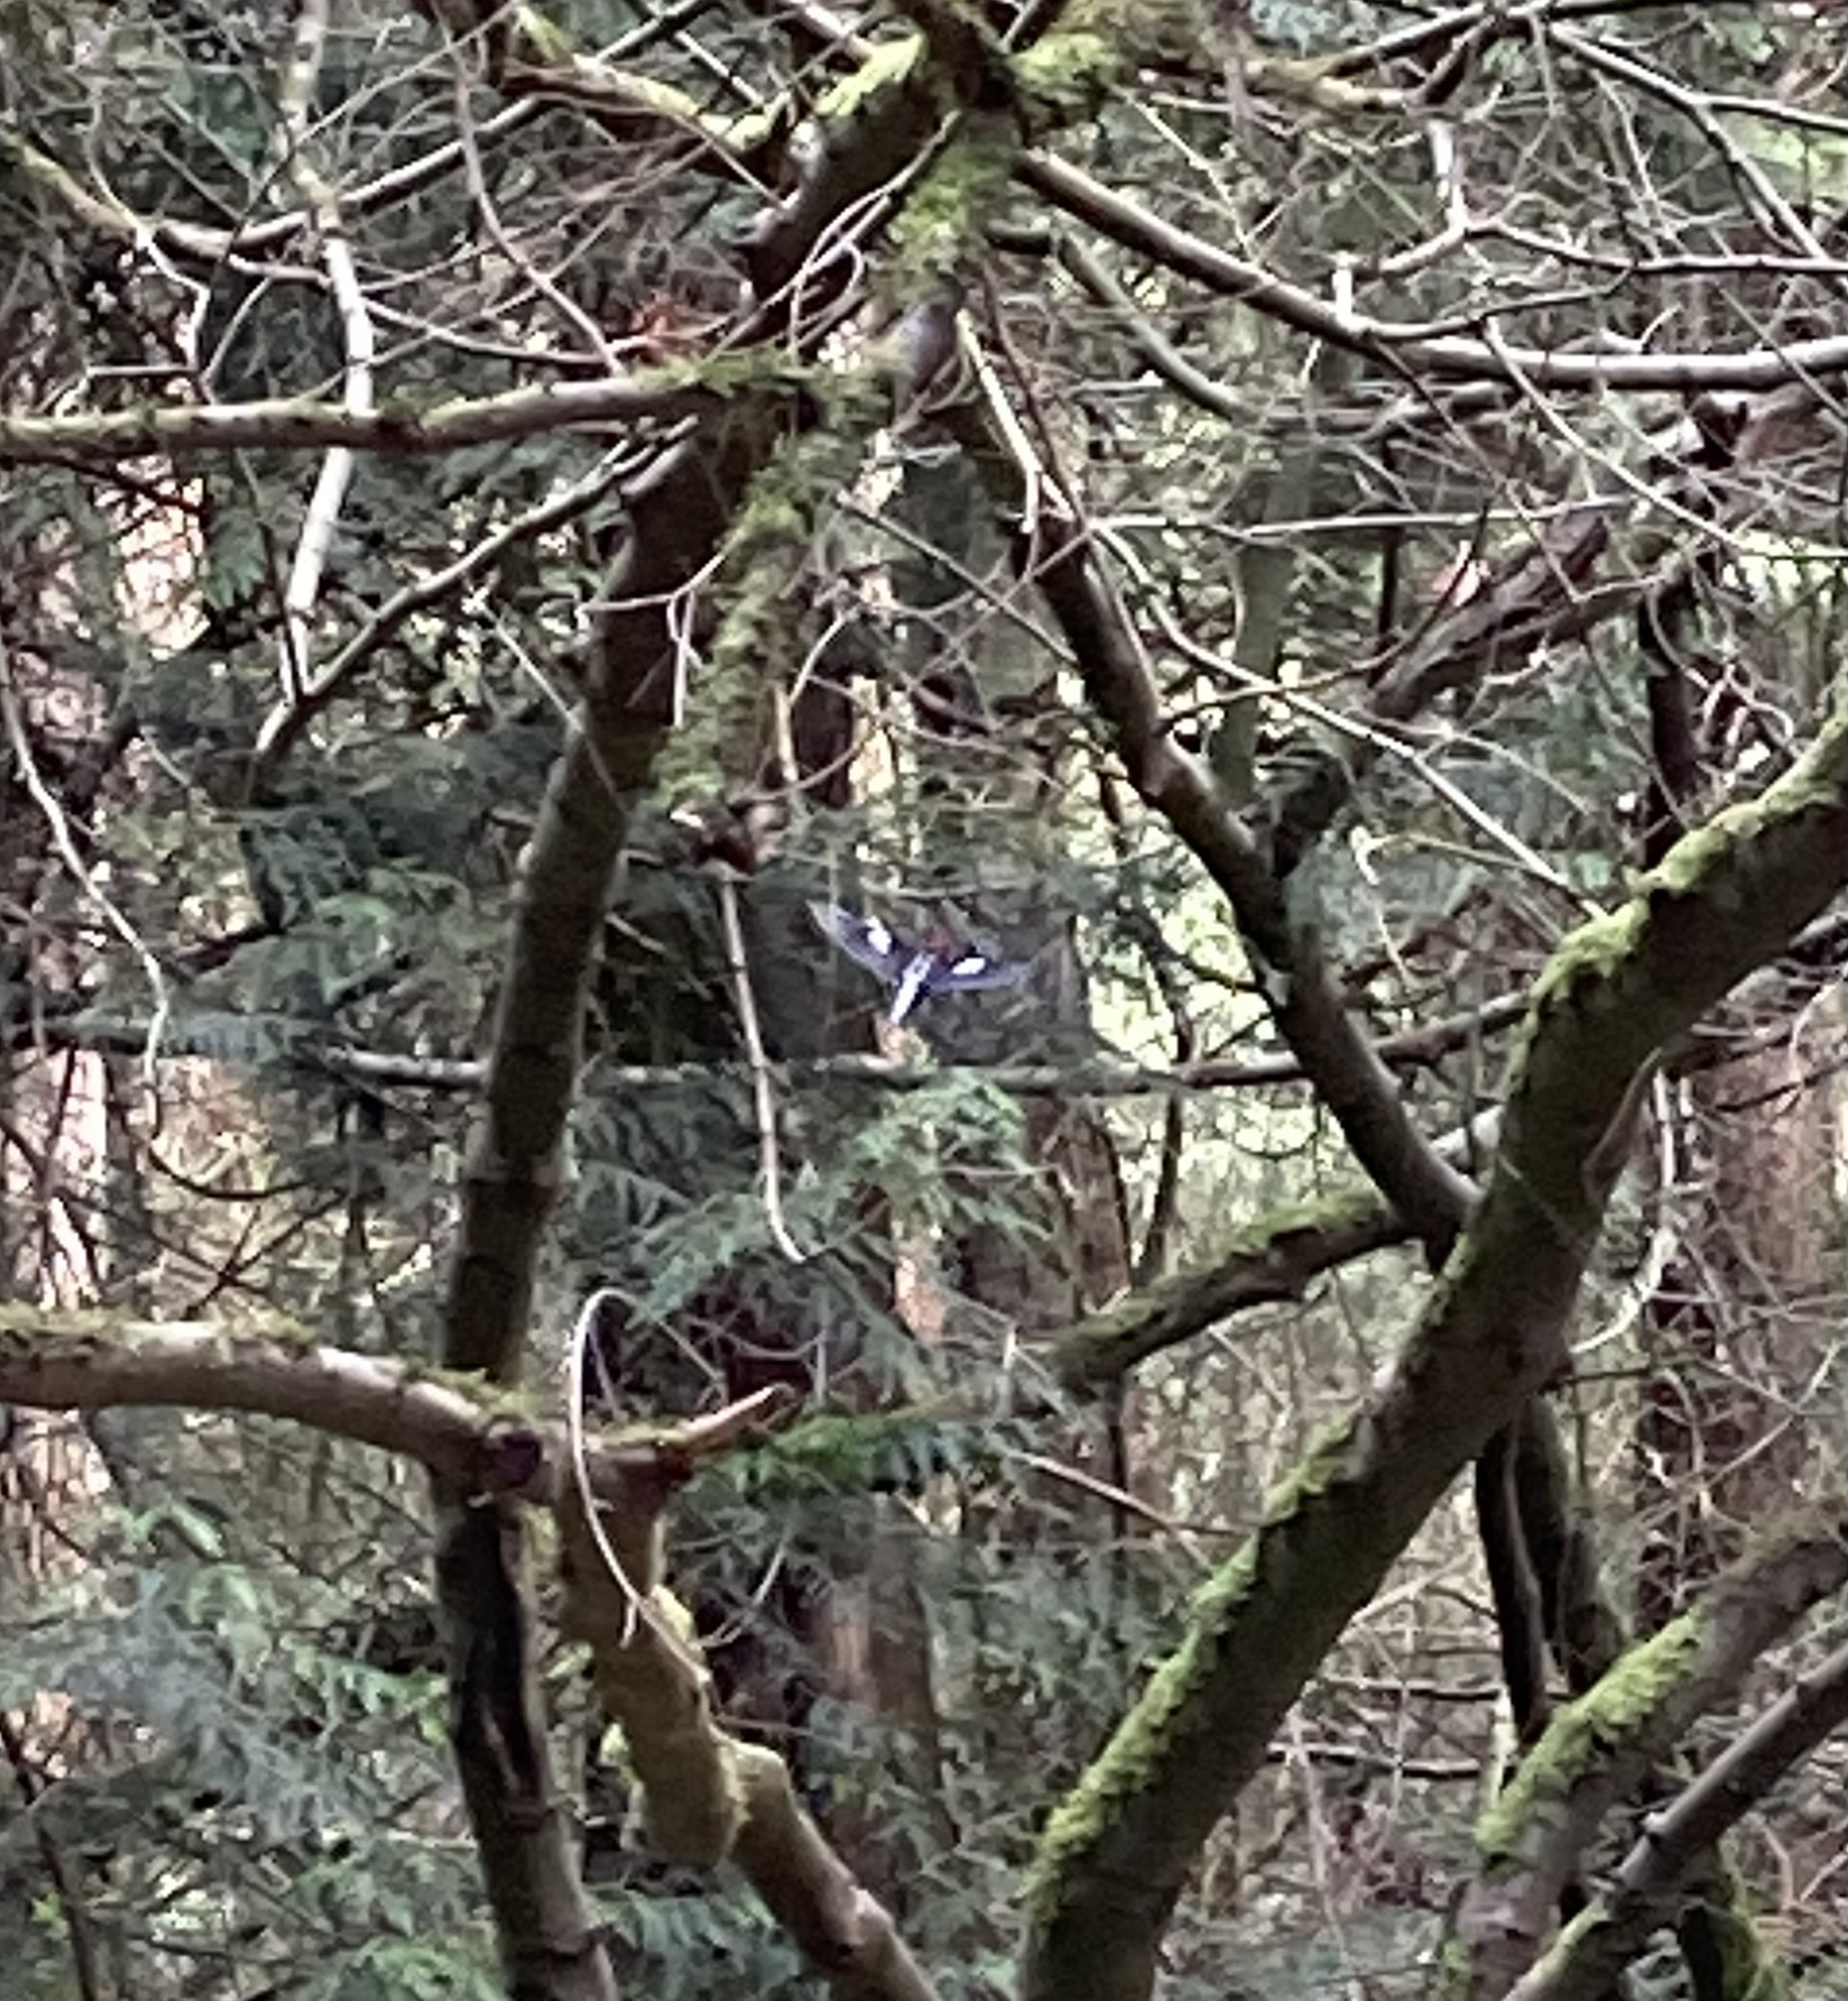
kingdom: Animalia
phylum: Chordata
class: Aves
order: Piciformes
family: Picidae
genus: Sphyrapicus
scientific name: Sphyrapicus ruber
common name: Red-breasted sapsucker
